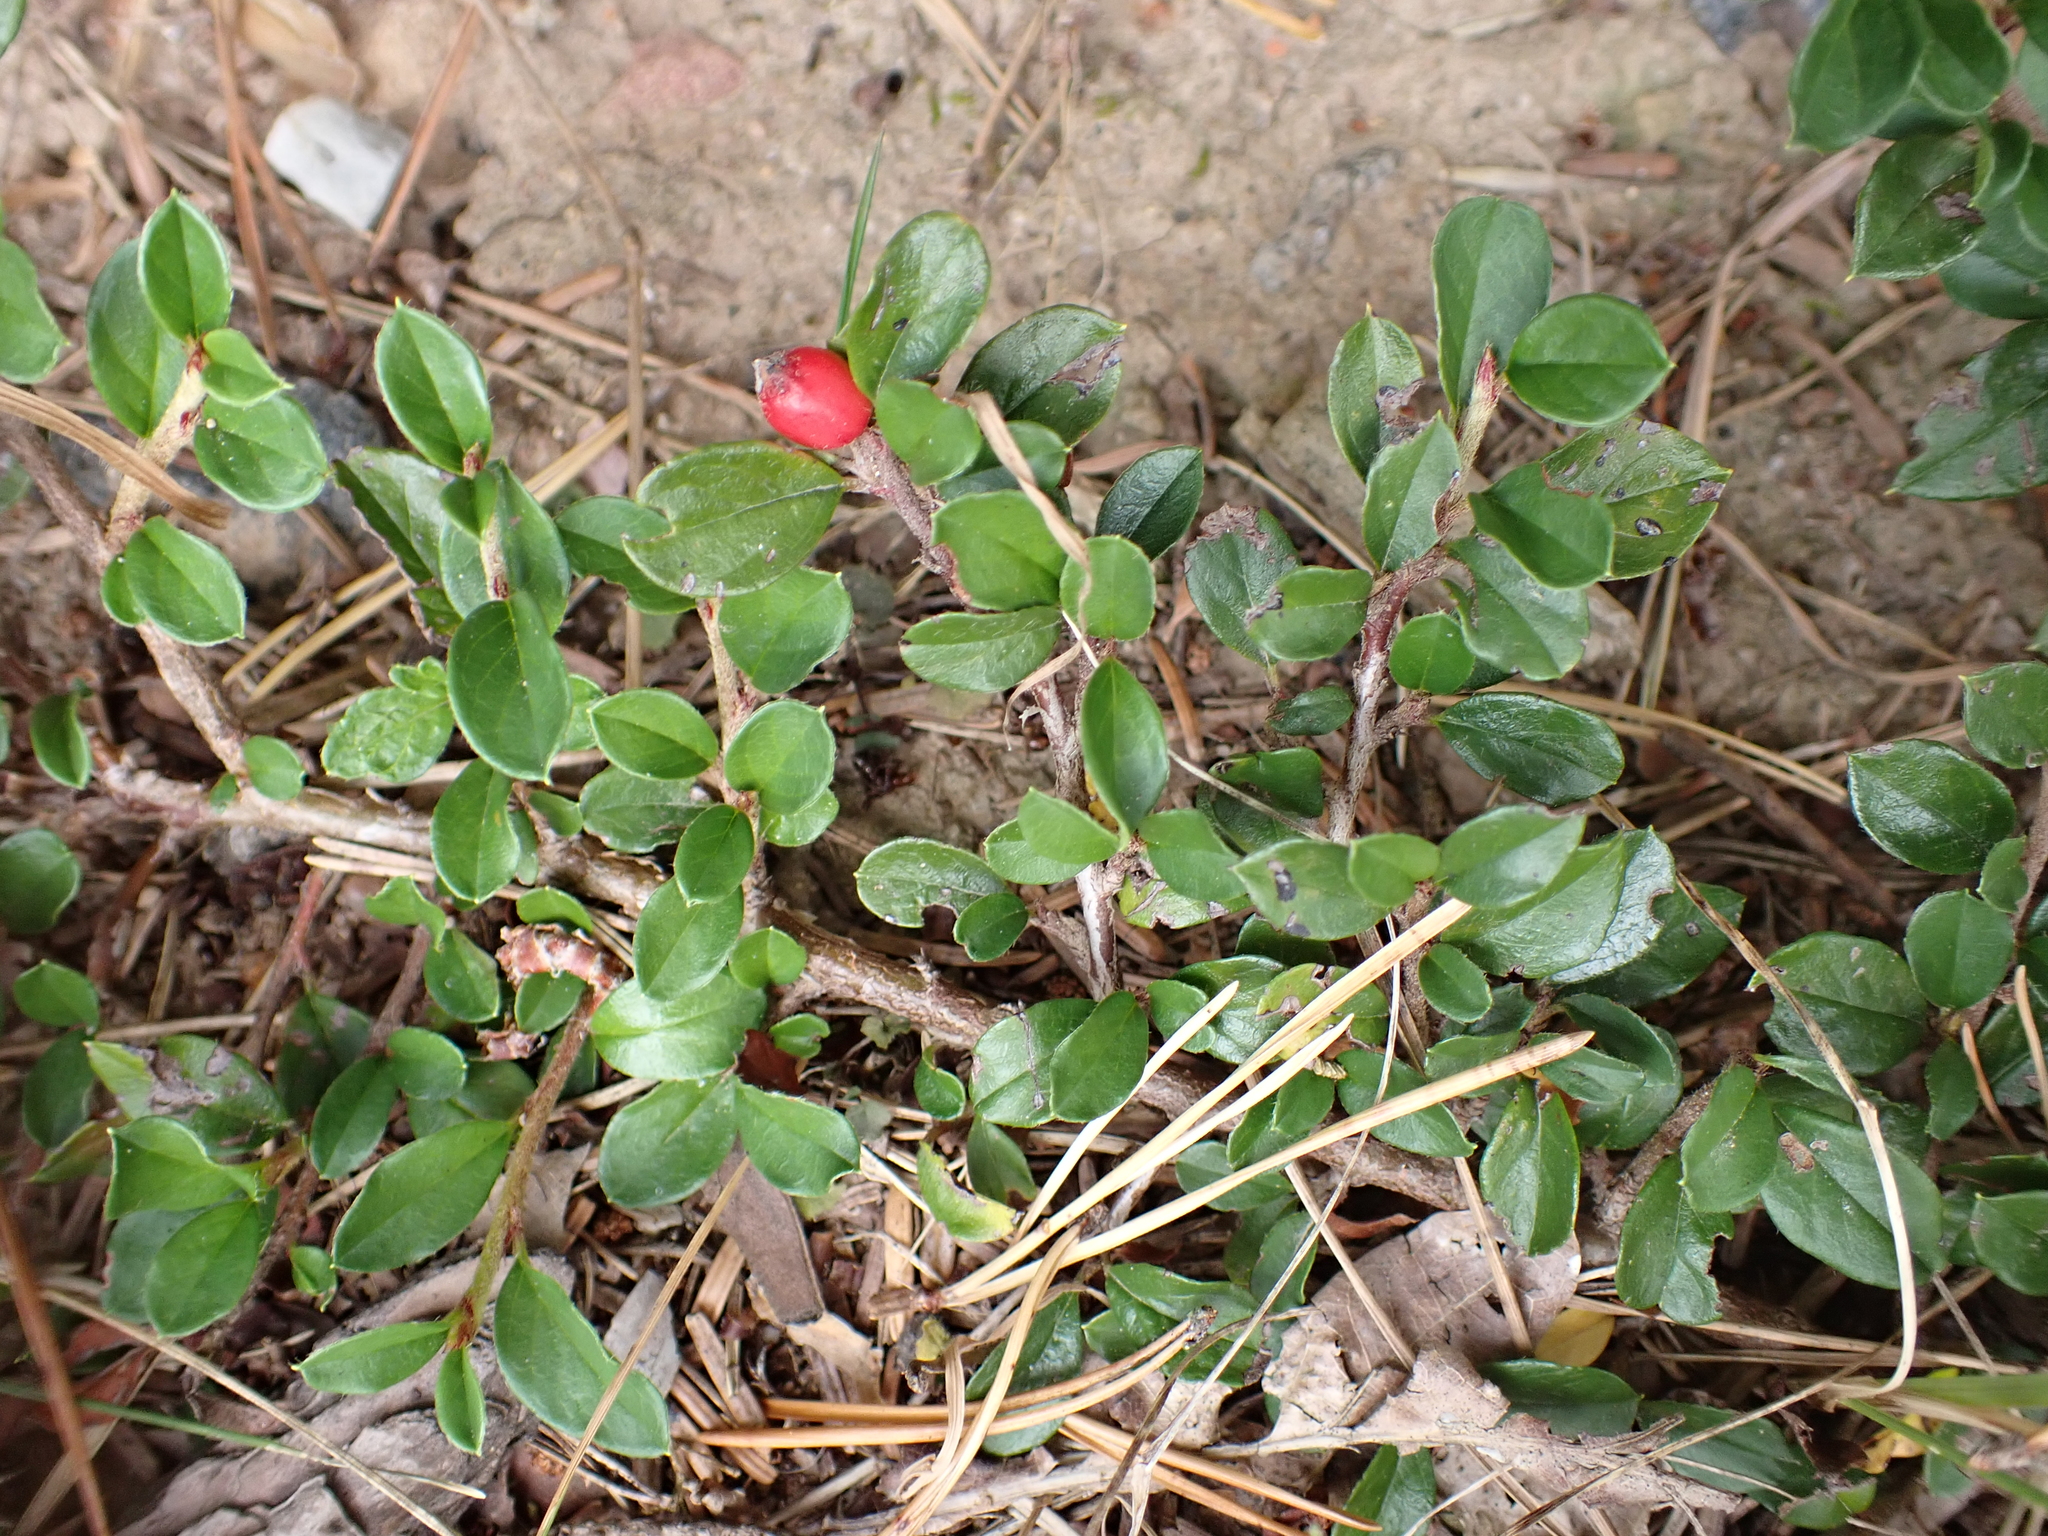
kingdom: Plantae
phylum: Tracheophyta
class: Magnoliopsida
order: Rosales
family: Rosaceae
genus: Cotoneaster
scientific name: Cotoneaster ascendens
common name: Ascending cotoneaster
